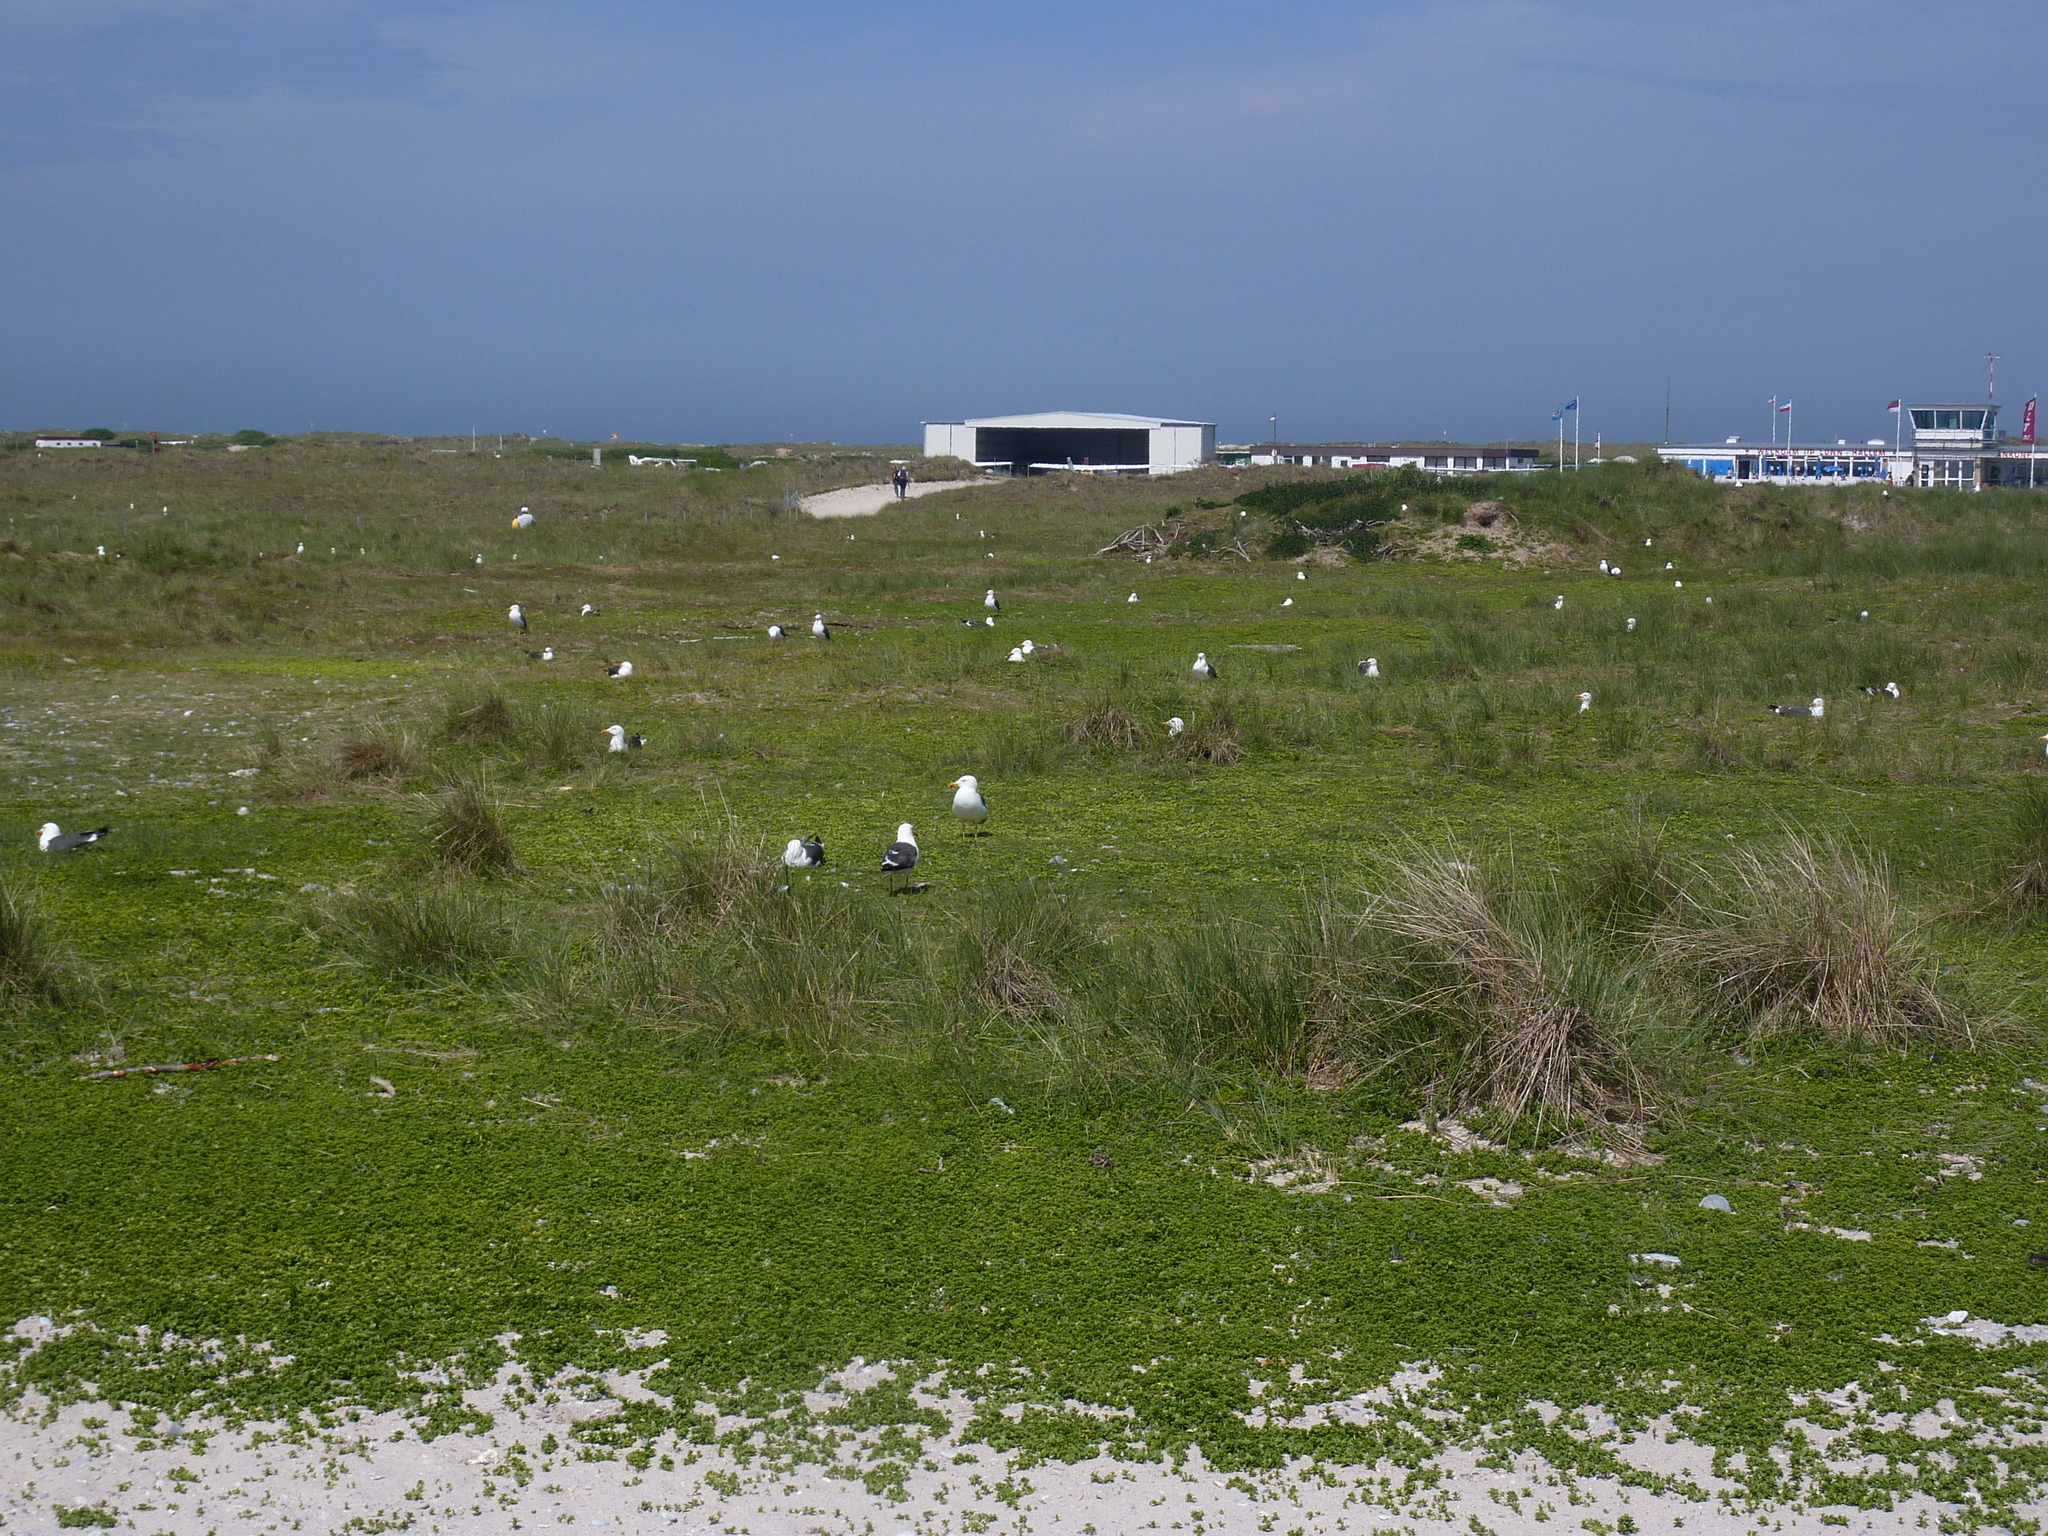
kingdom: Animalia
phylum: Chordata
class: Aves
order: Charadriiformes
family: Laridae
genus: Larus
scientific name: Larus fuscus
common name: Lesser black-backed gull
